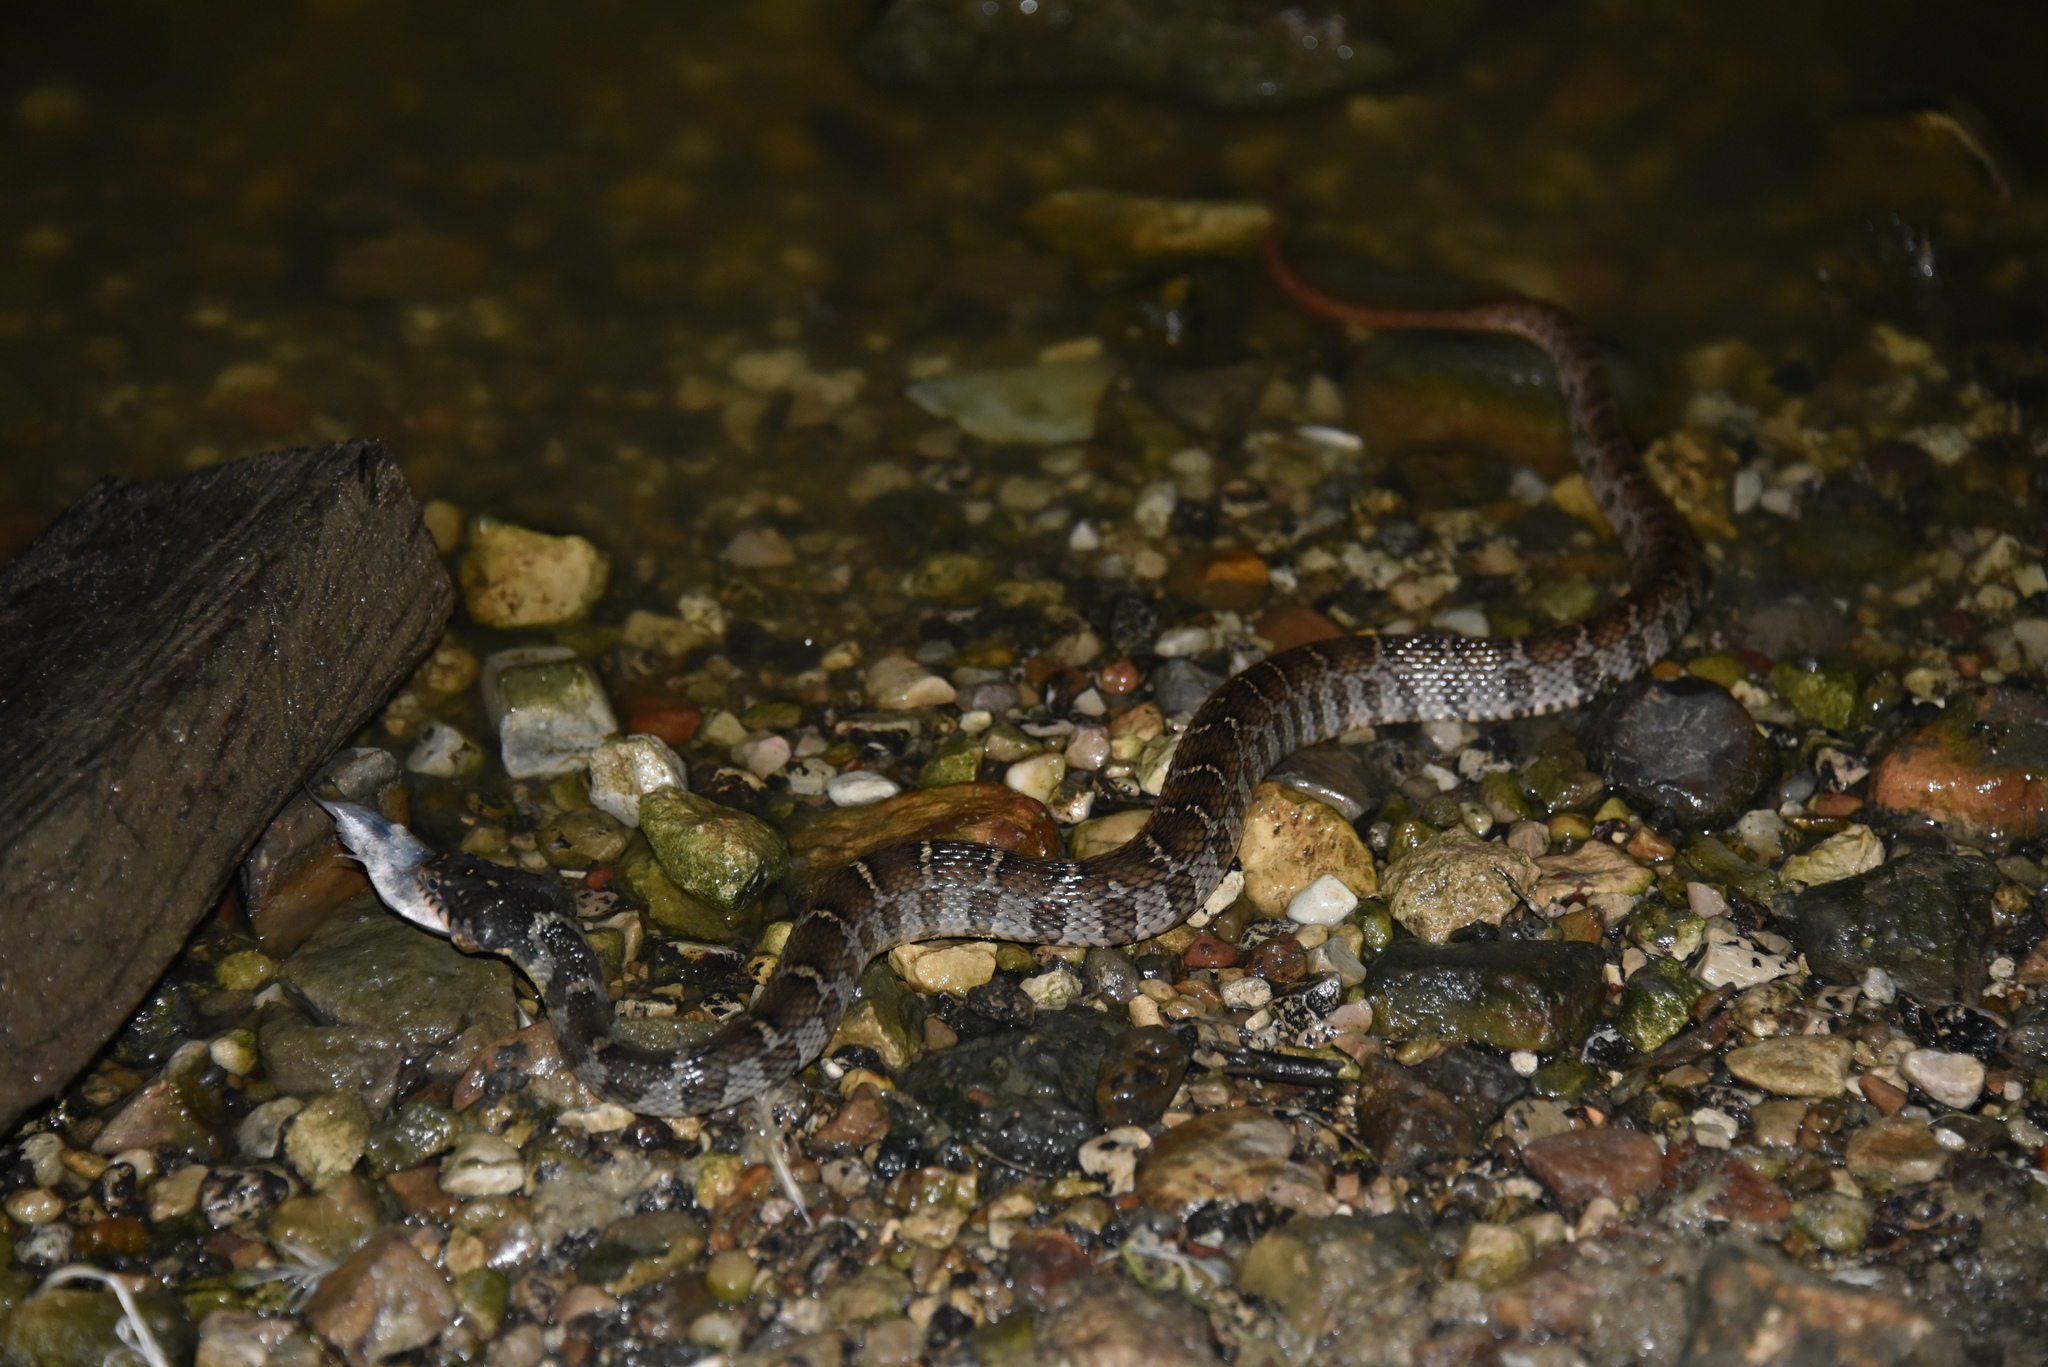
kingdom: Animalia
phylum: Chordata
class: Squamata
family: Colubridae
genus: Nerodia
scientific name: Nerodia erythrogaster
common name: Plainbelly water snake
